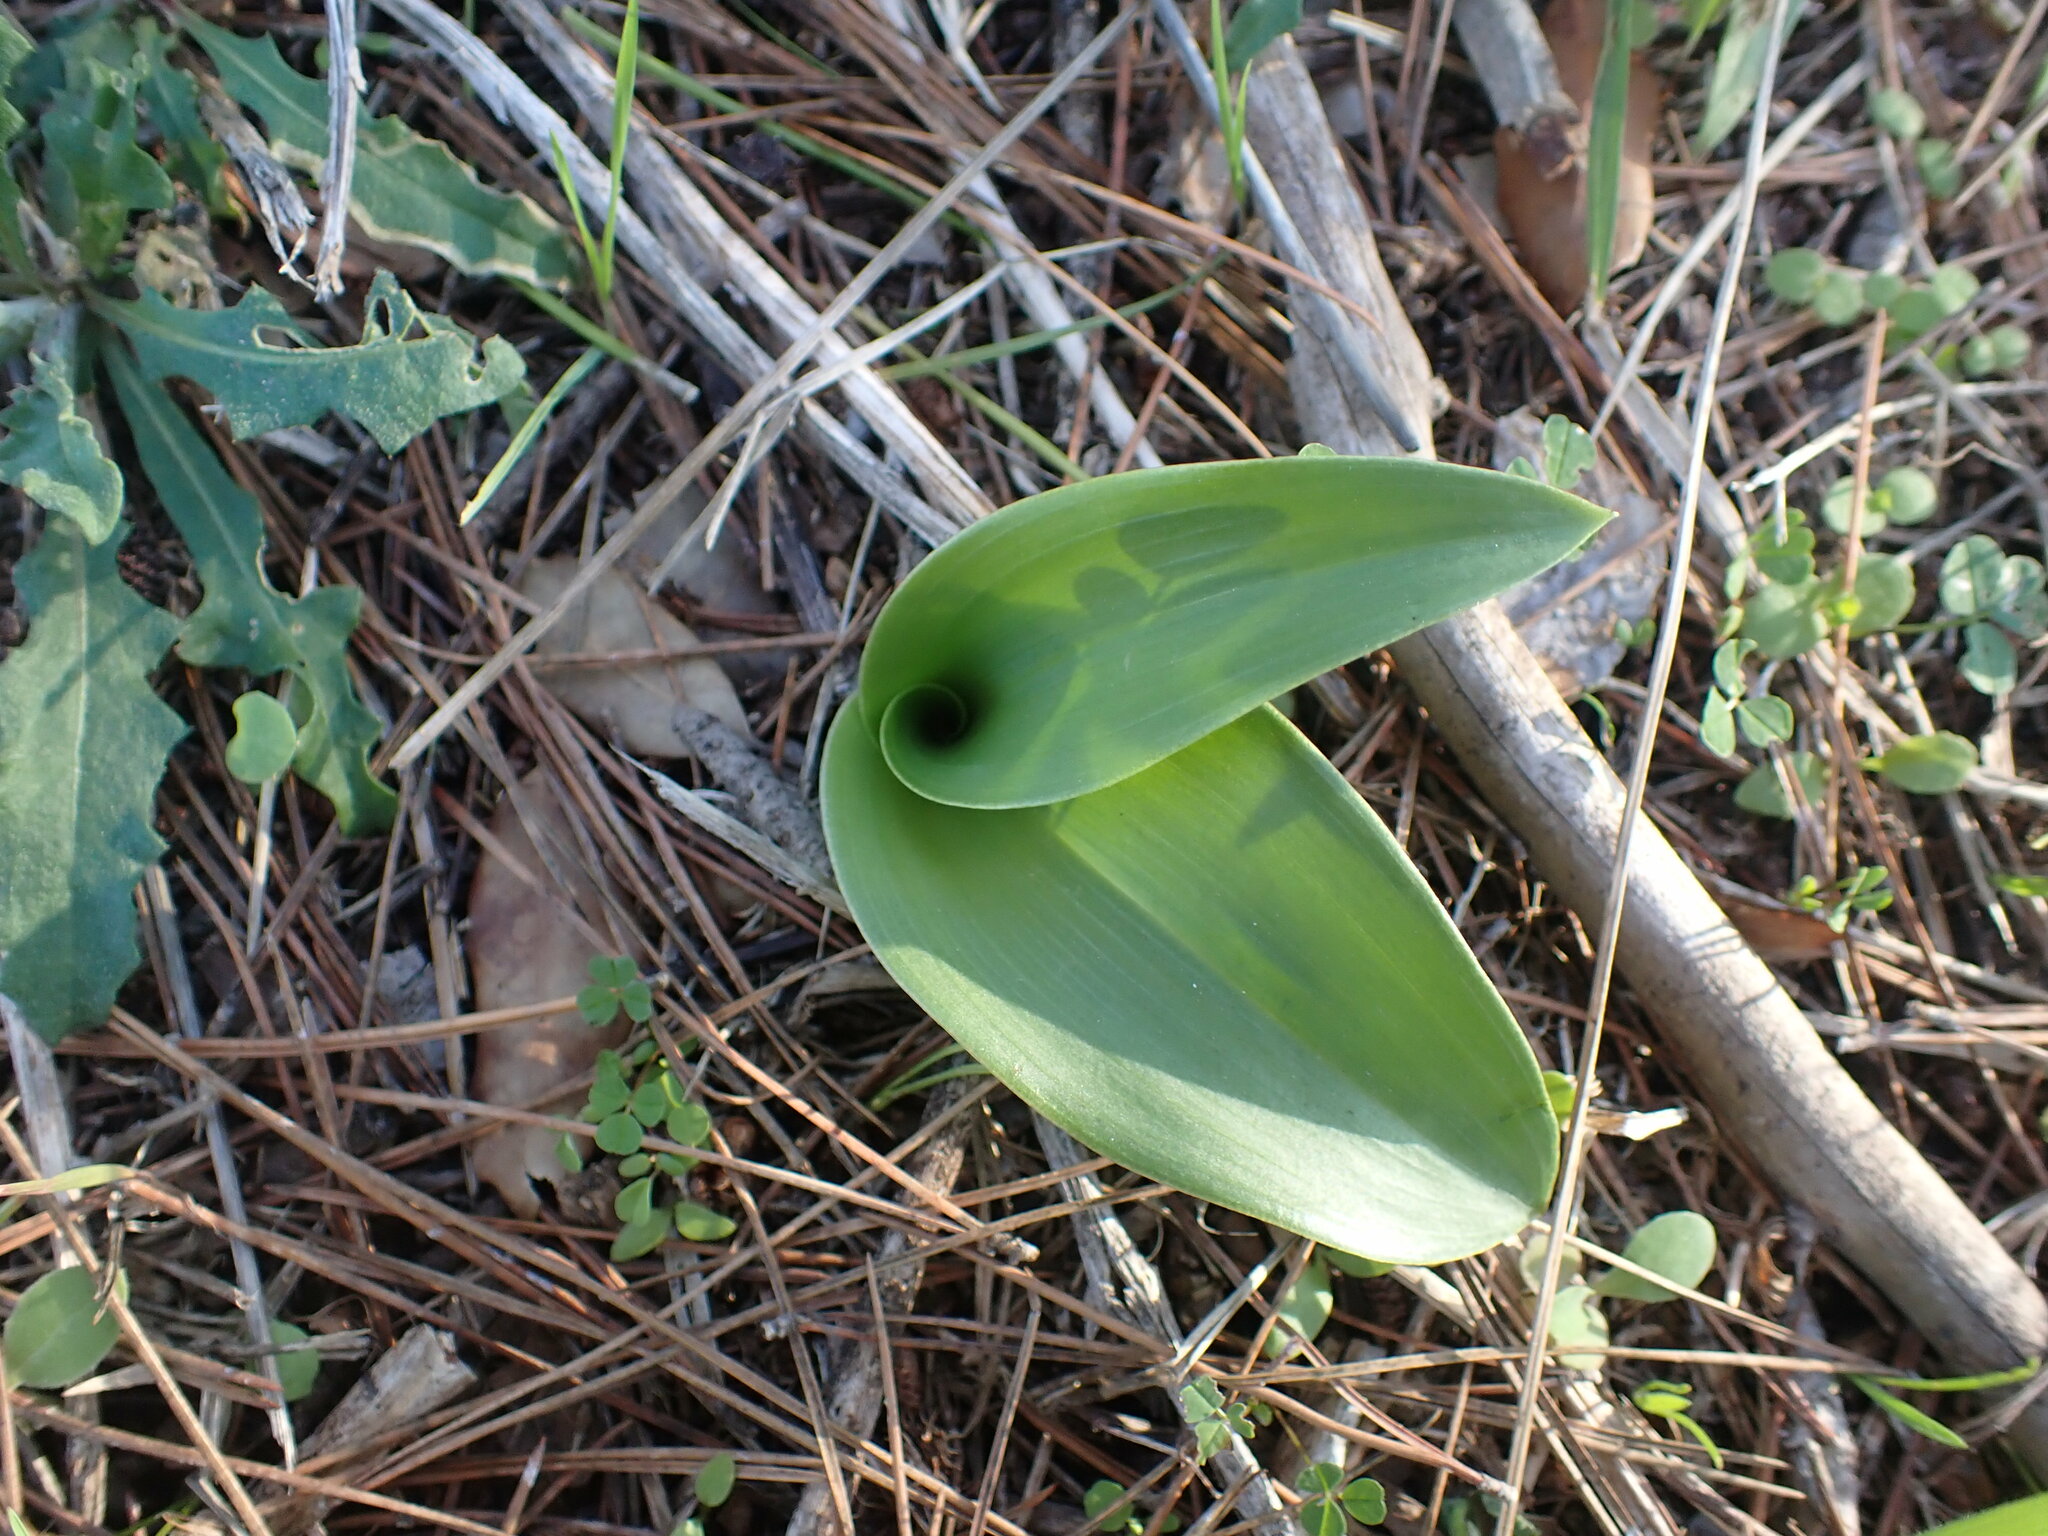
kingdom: Plantae
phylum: Tracheophyta
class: Liliopsida
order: Asparagales
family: Orchidaceae
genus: Himantoglossum
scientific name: Himantoglossum robertianum
